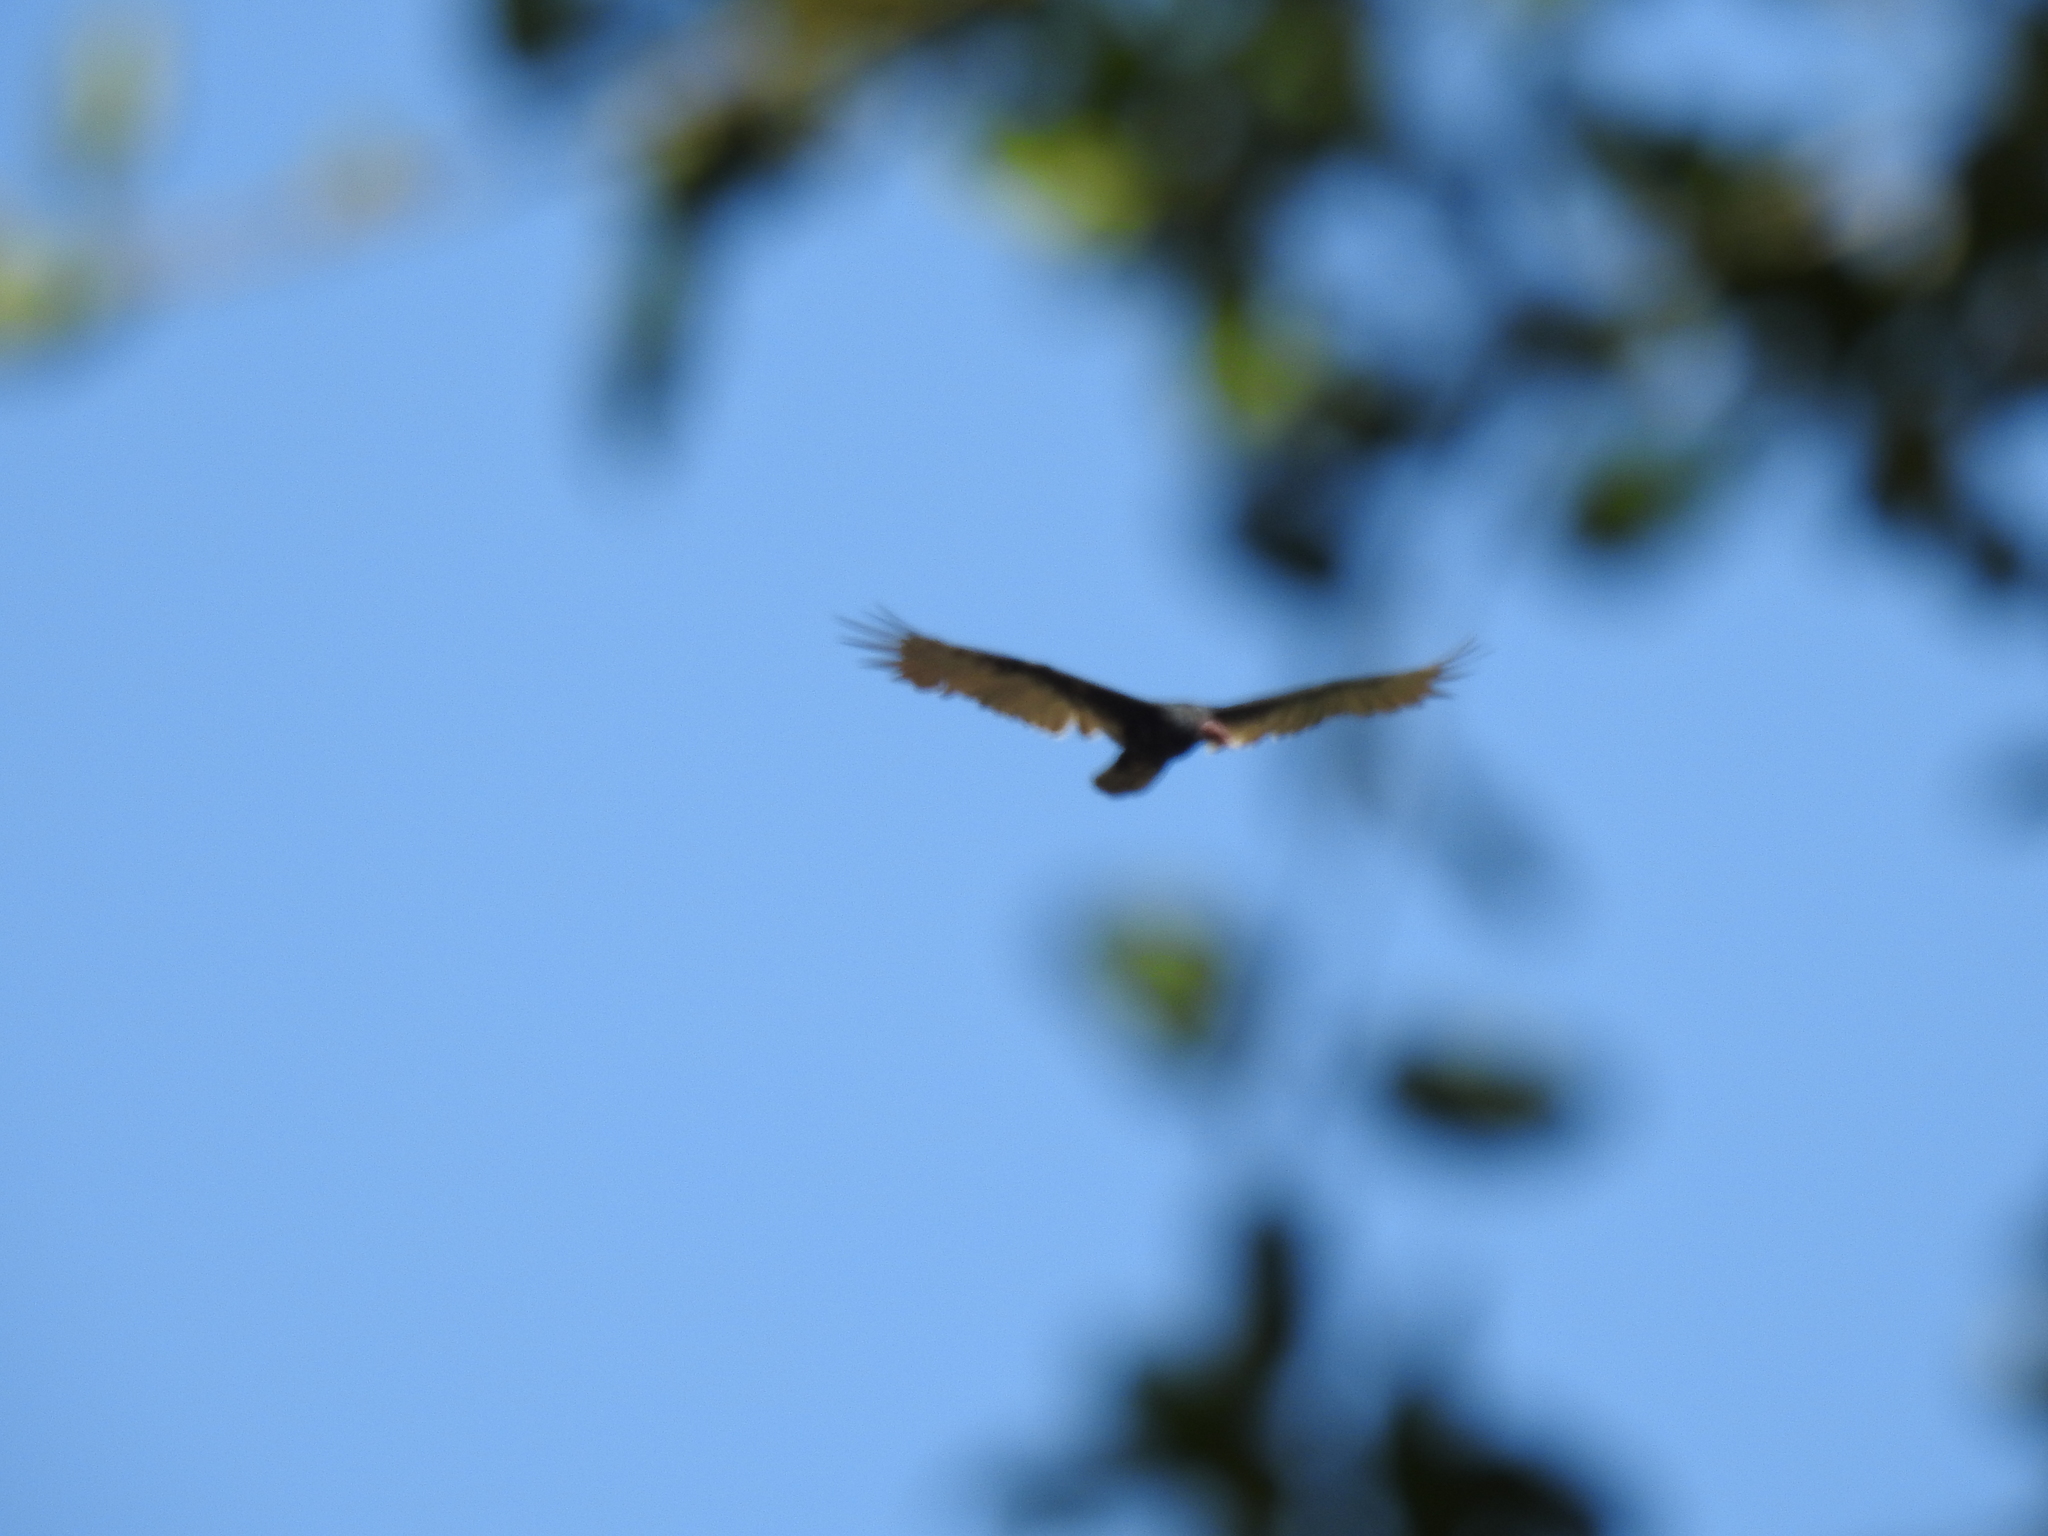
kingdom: Animalia
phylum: Chordata
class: Aves
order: Accipitriformes
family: Cathartidae
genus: Cathartes
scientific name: Cathartes aura
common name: Turkey vulture
